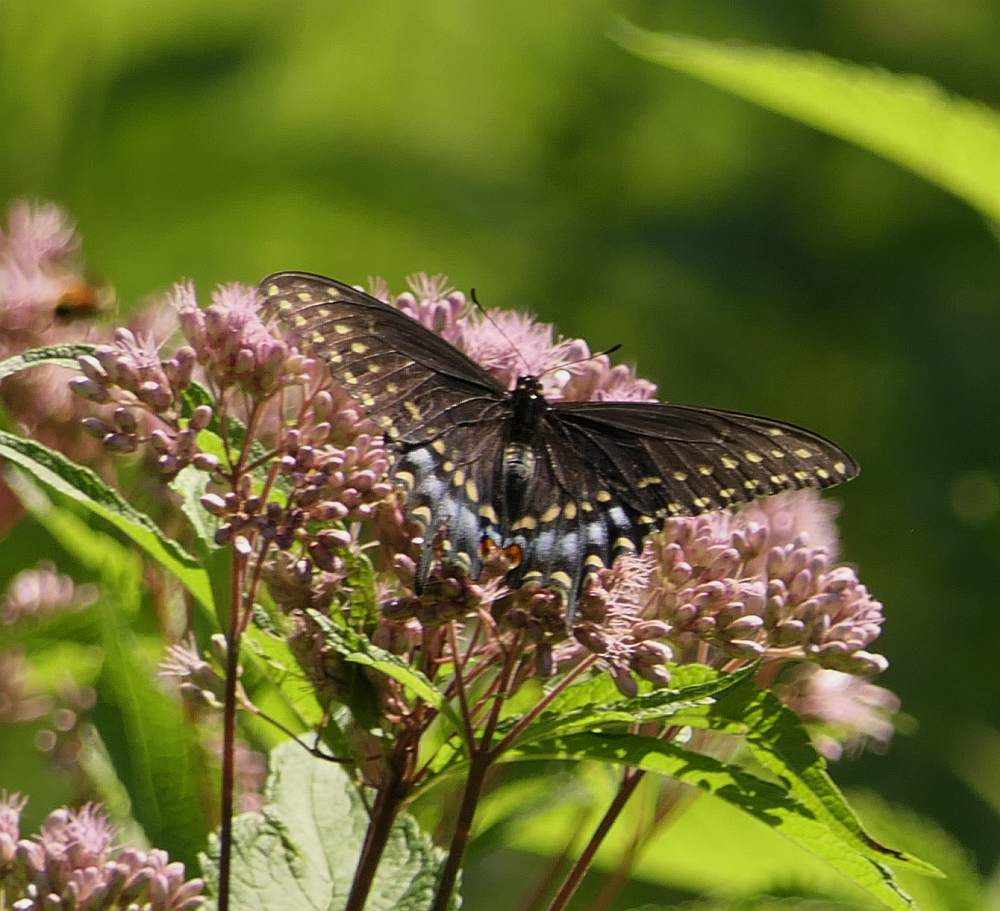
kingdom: Animalia
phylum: Arthropoda
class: Insecta
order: Lepidoptera
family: Papilionidae
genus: Papilio
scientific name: Papilio polyxenes
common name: Black swallowtail
